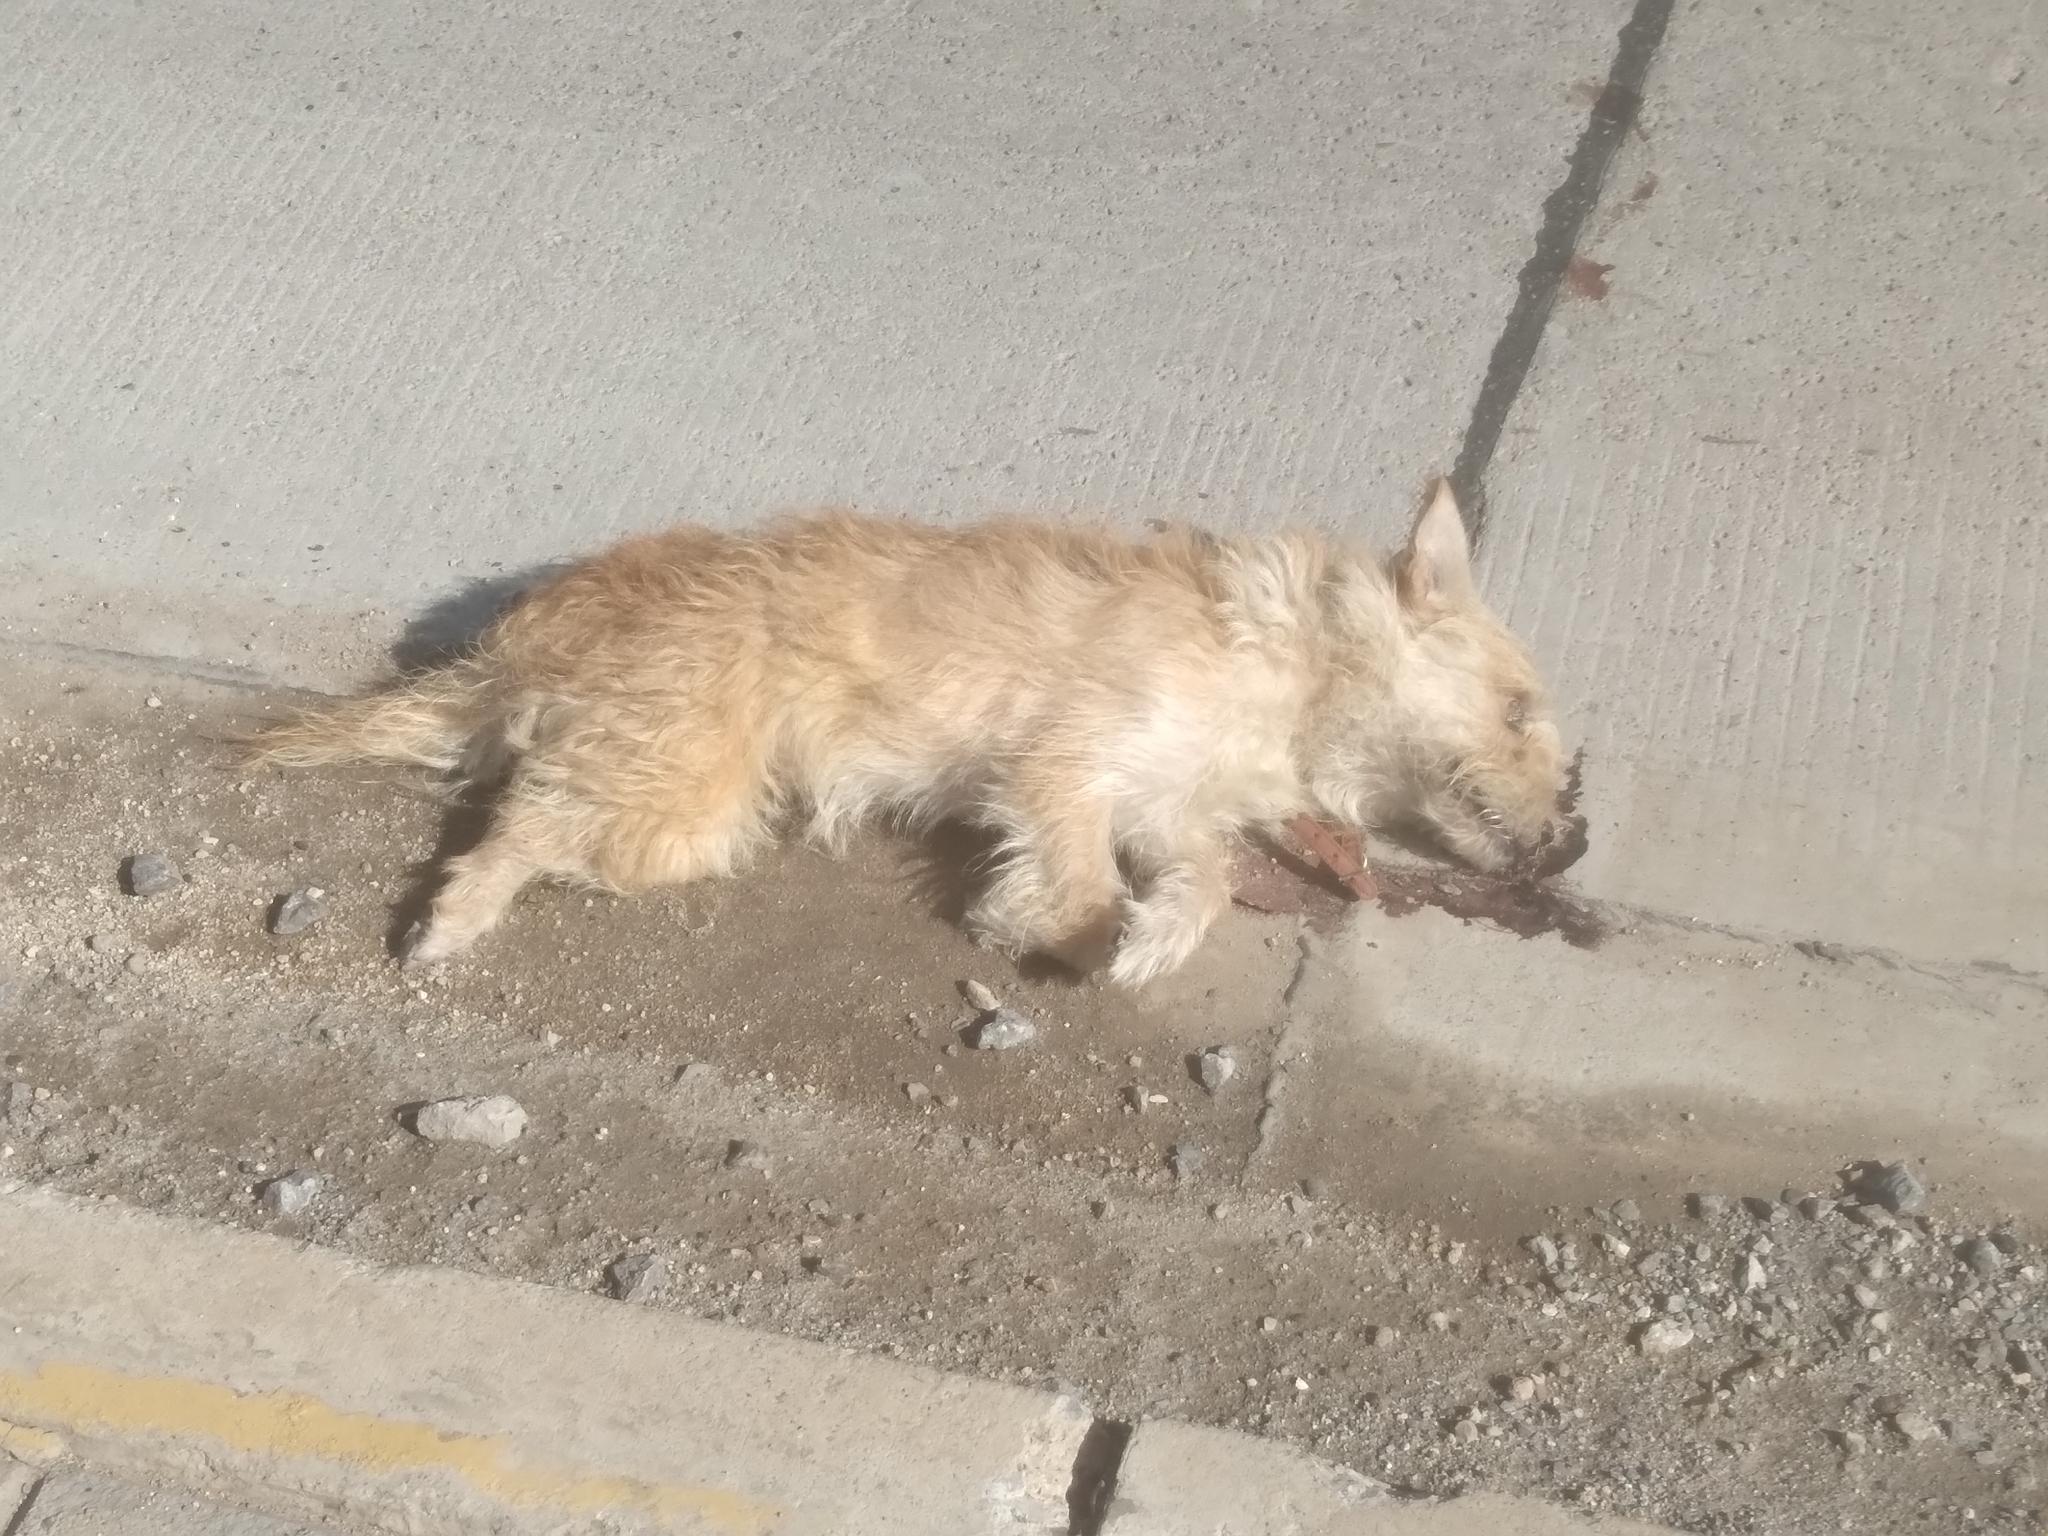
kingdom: Animalia
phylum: Chordata
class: Mammalia
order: Carnivora
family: Canidae
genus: Canis
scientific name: Canis lupus
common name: Gray wolf
